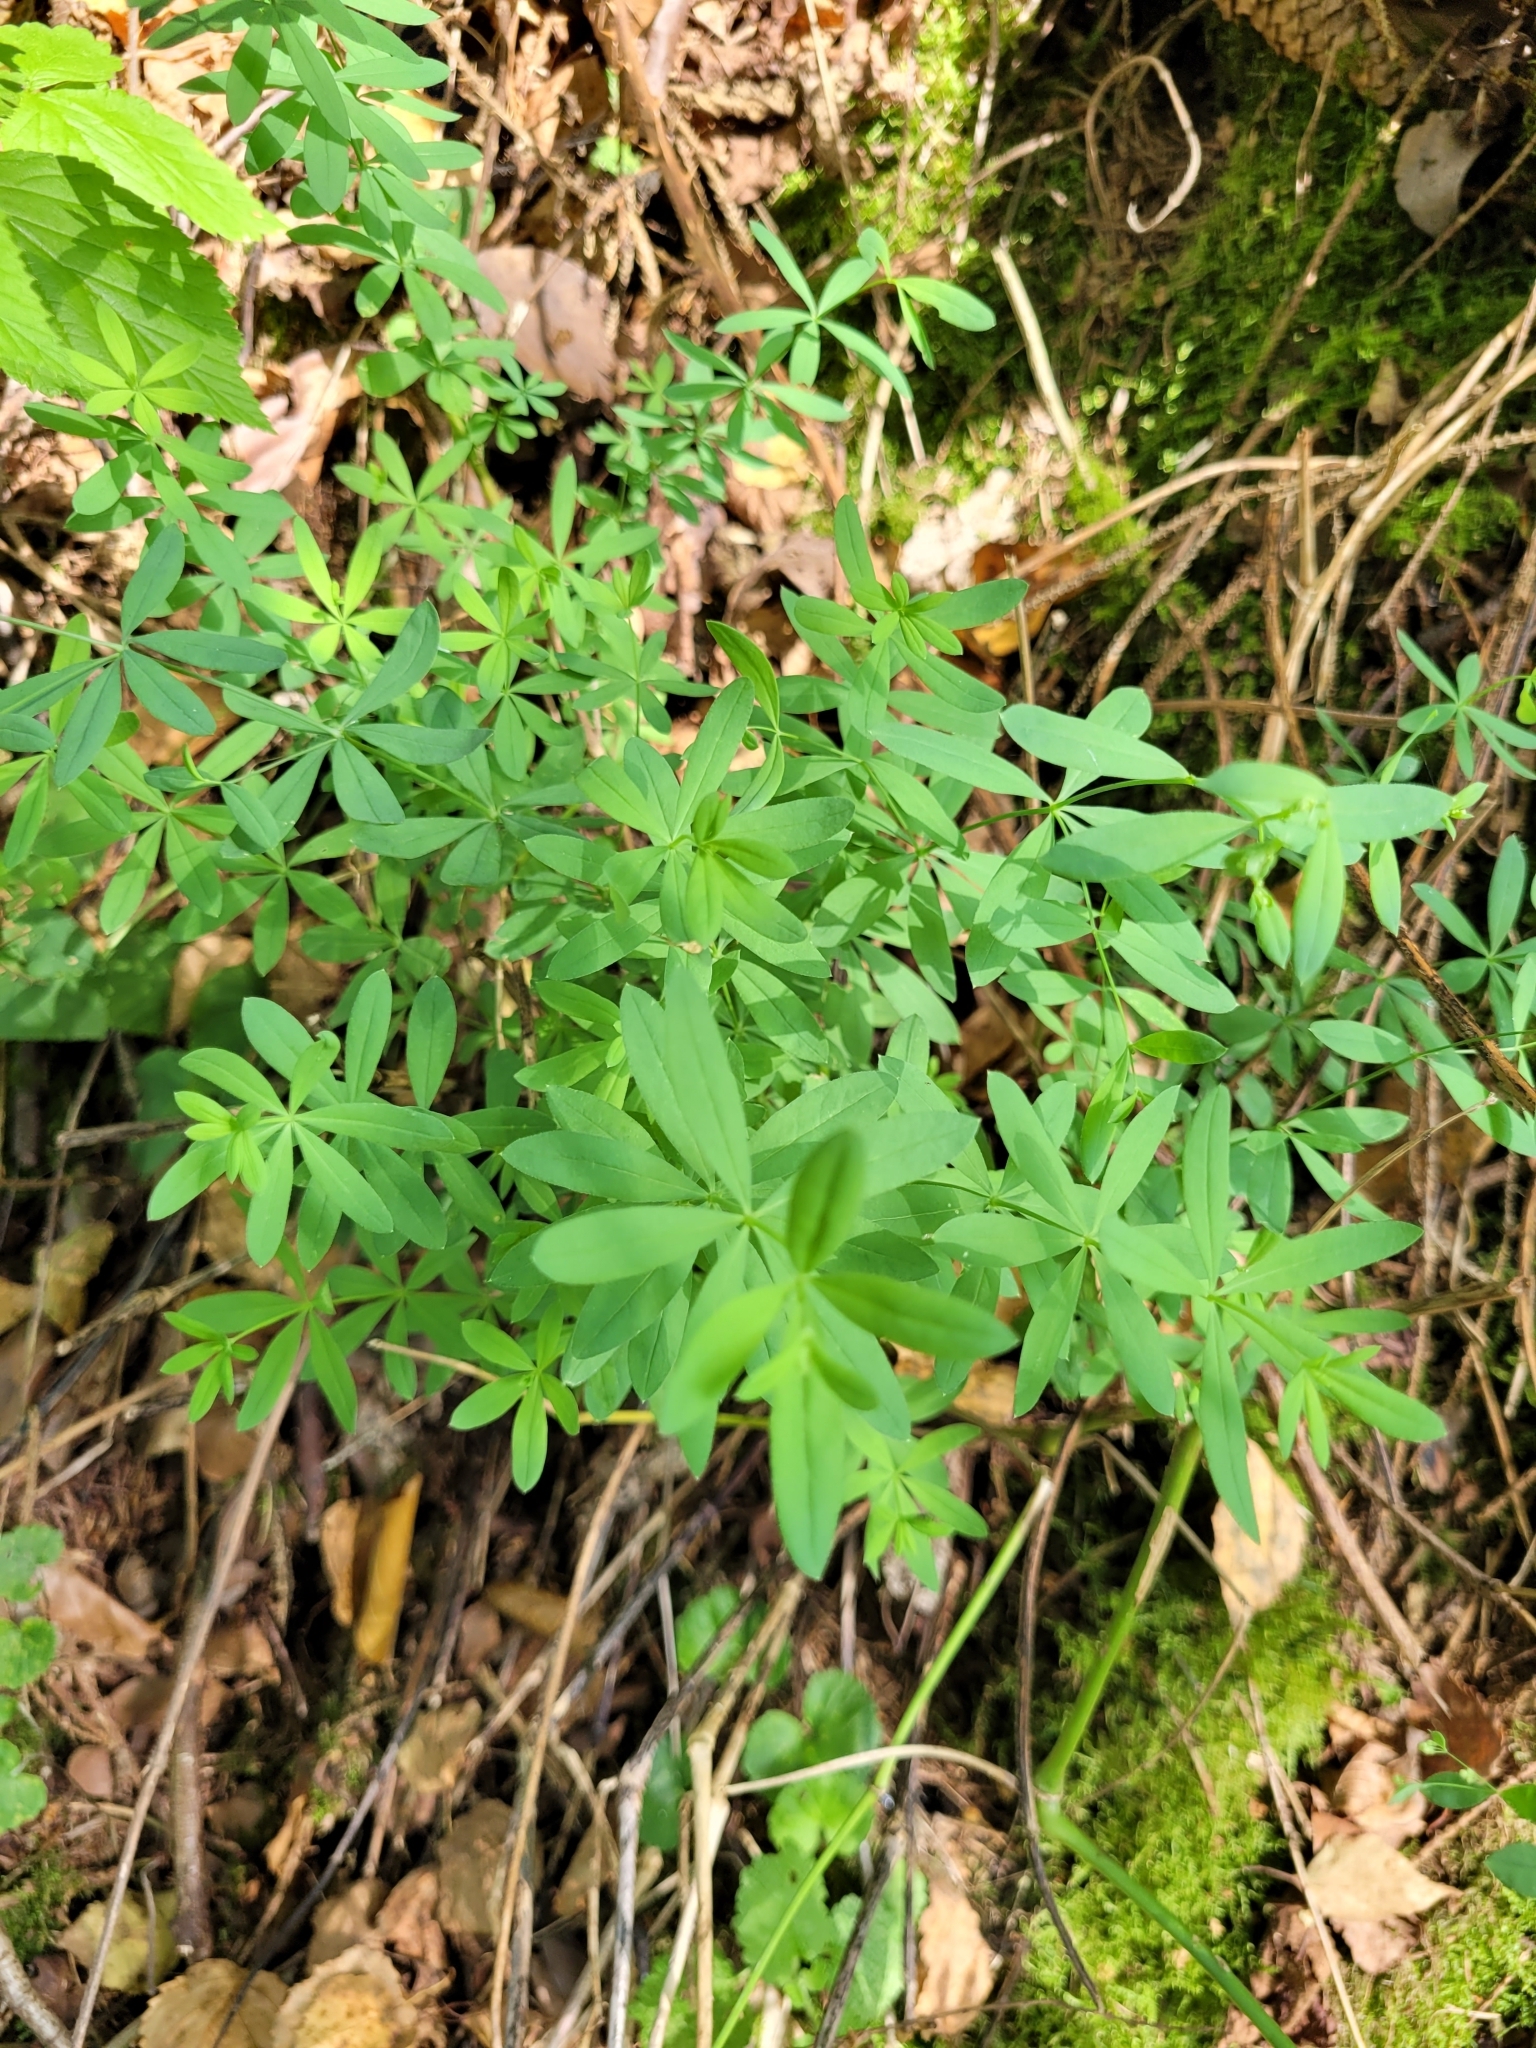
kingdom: Plantae
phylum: Tracheophyta
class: Magnoliopsida
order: Gentianales
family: Rubiaceae
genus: Galium
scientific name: Galium sylvaticum
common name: Wood bedstraw
